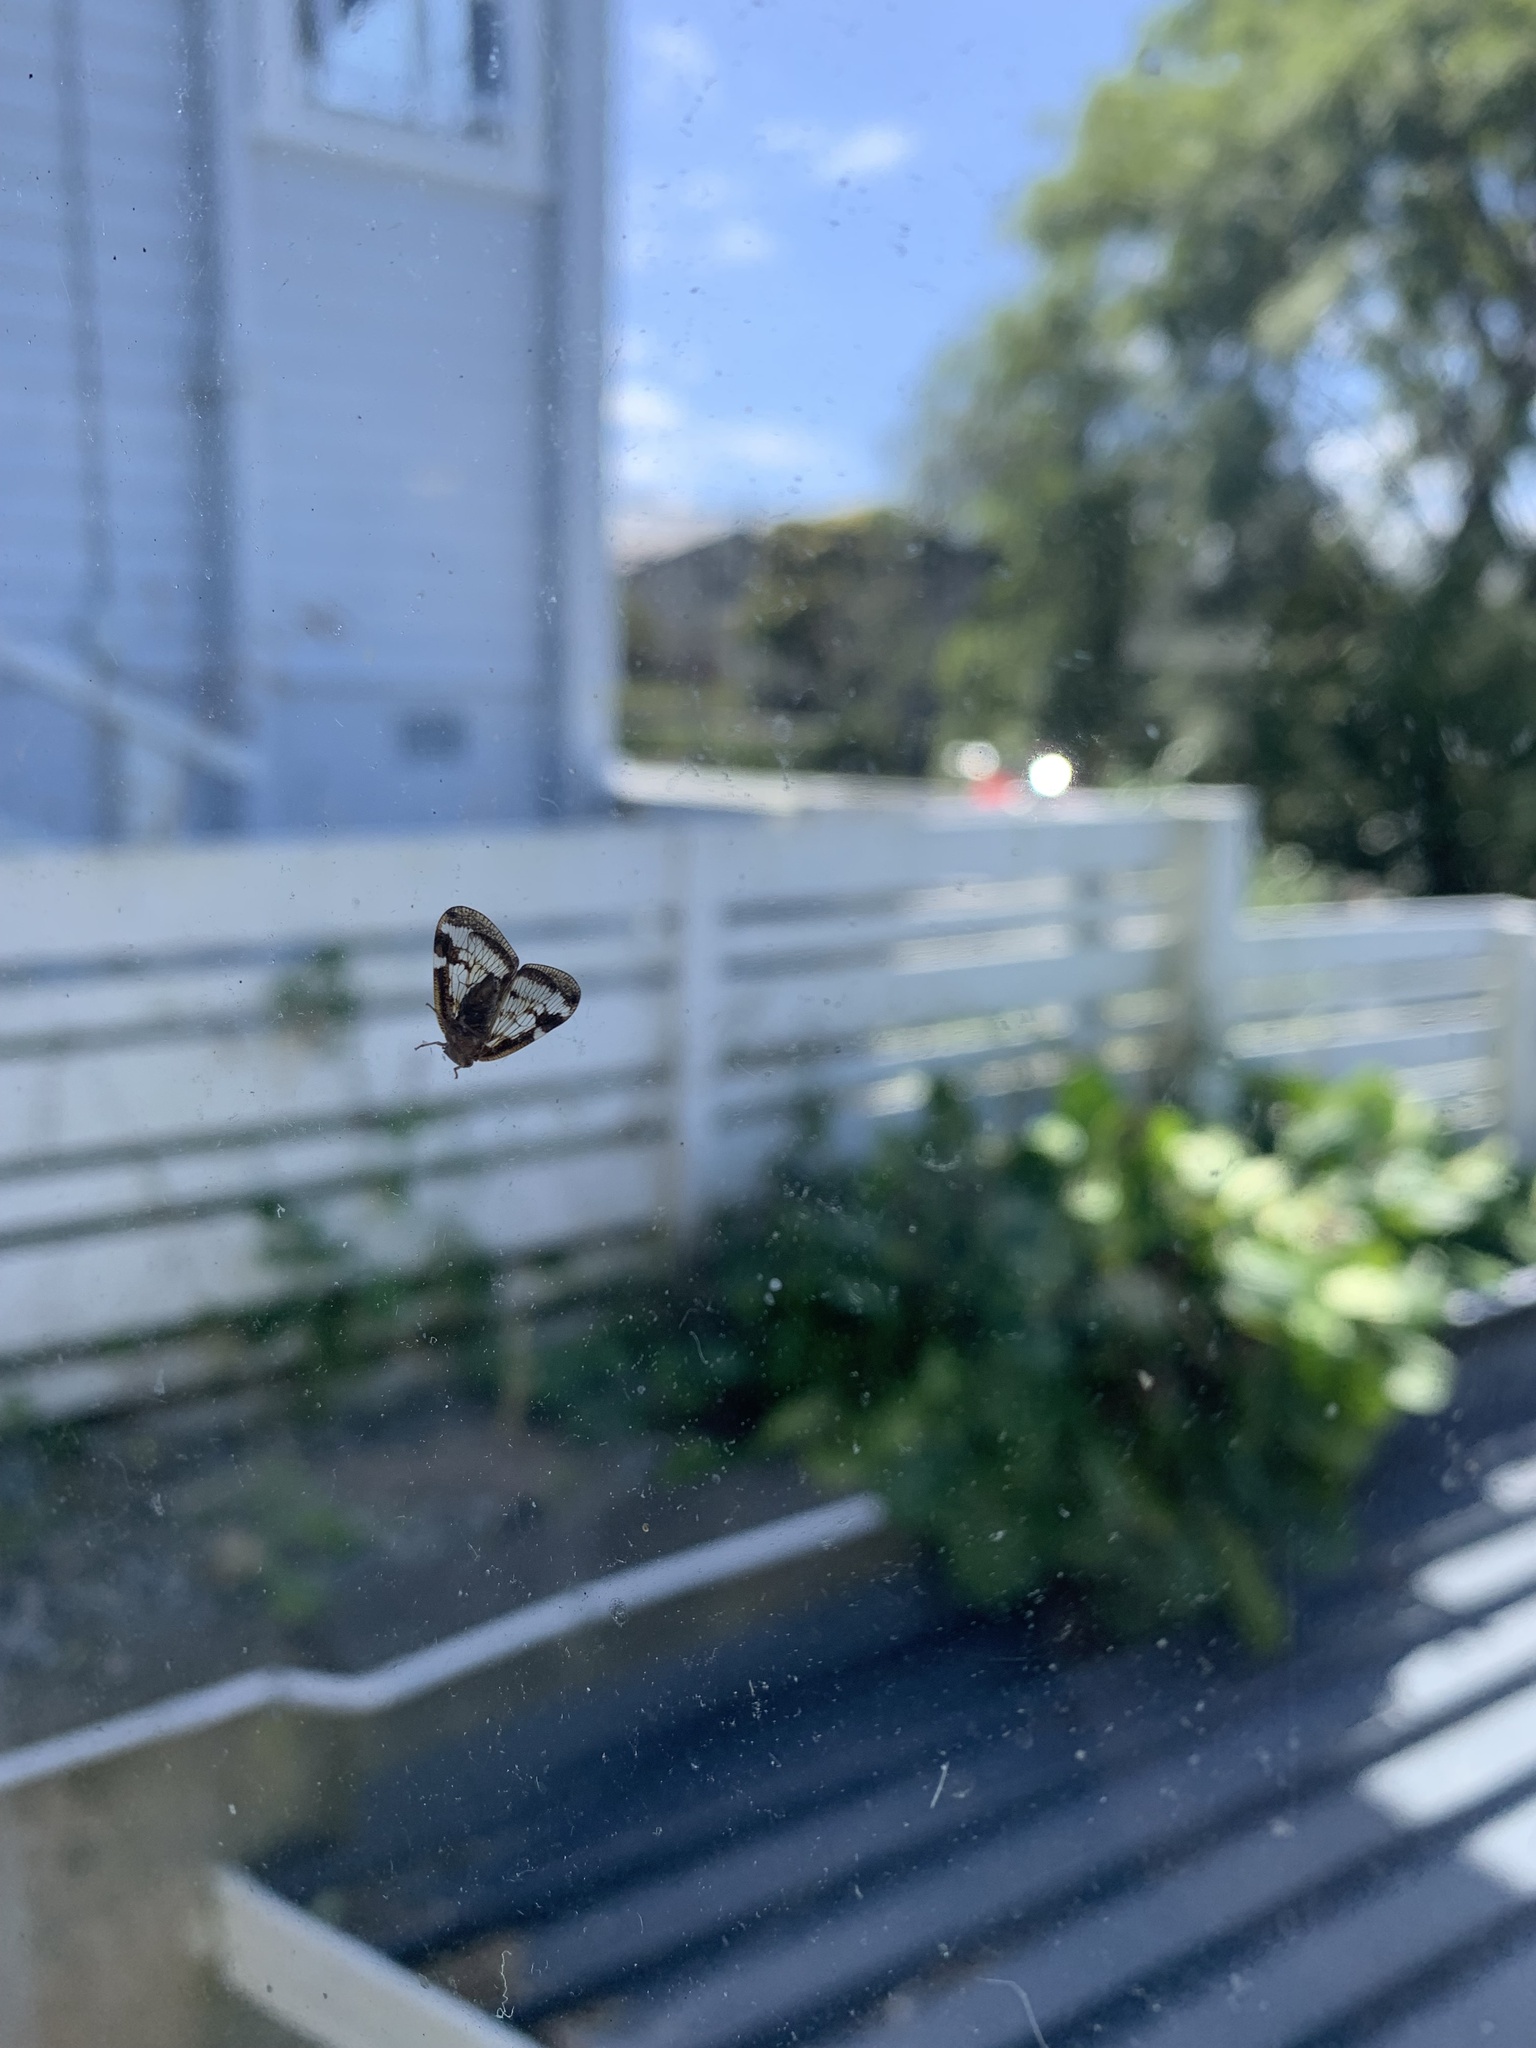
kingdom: Animalia
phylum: Arthropoda
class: Insecta
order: Hemiptera
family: Ricaniidae
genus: Scolypopa
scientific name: Scolypopa australis
